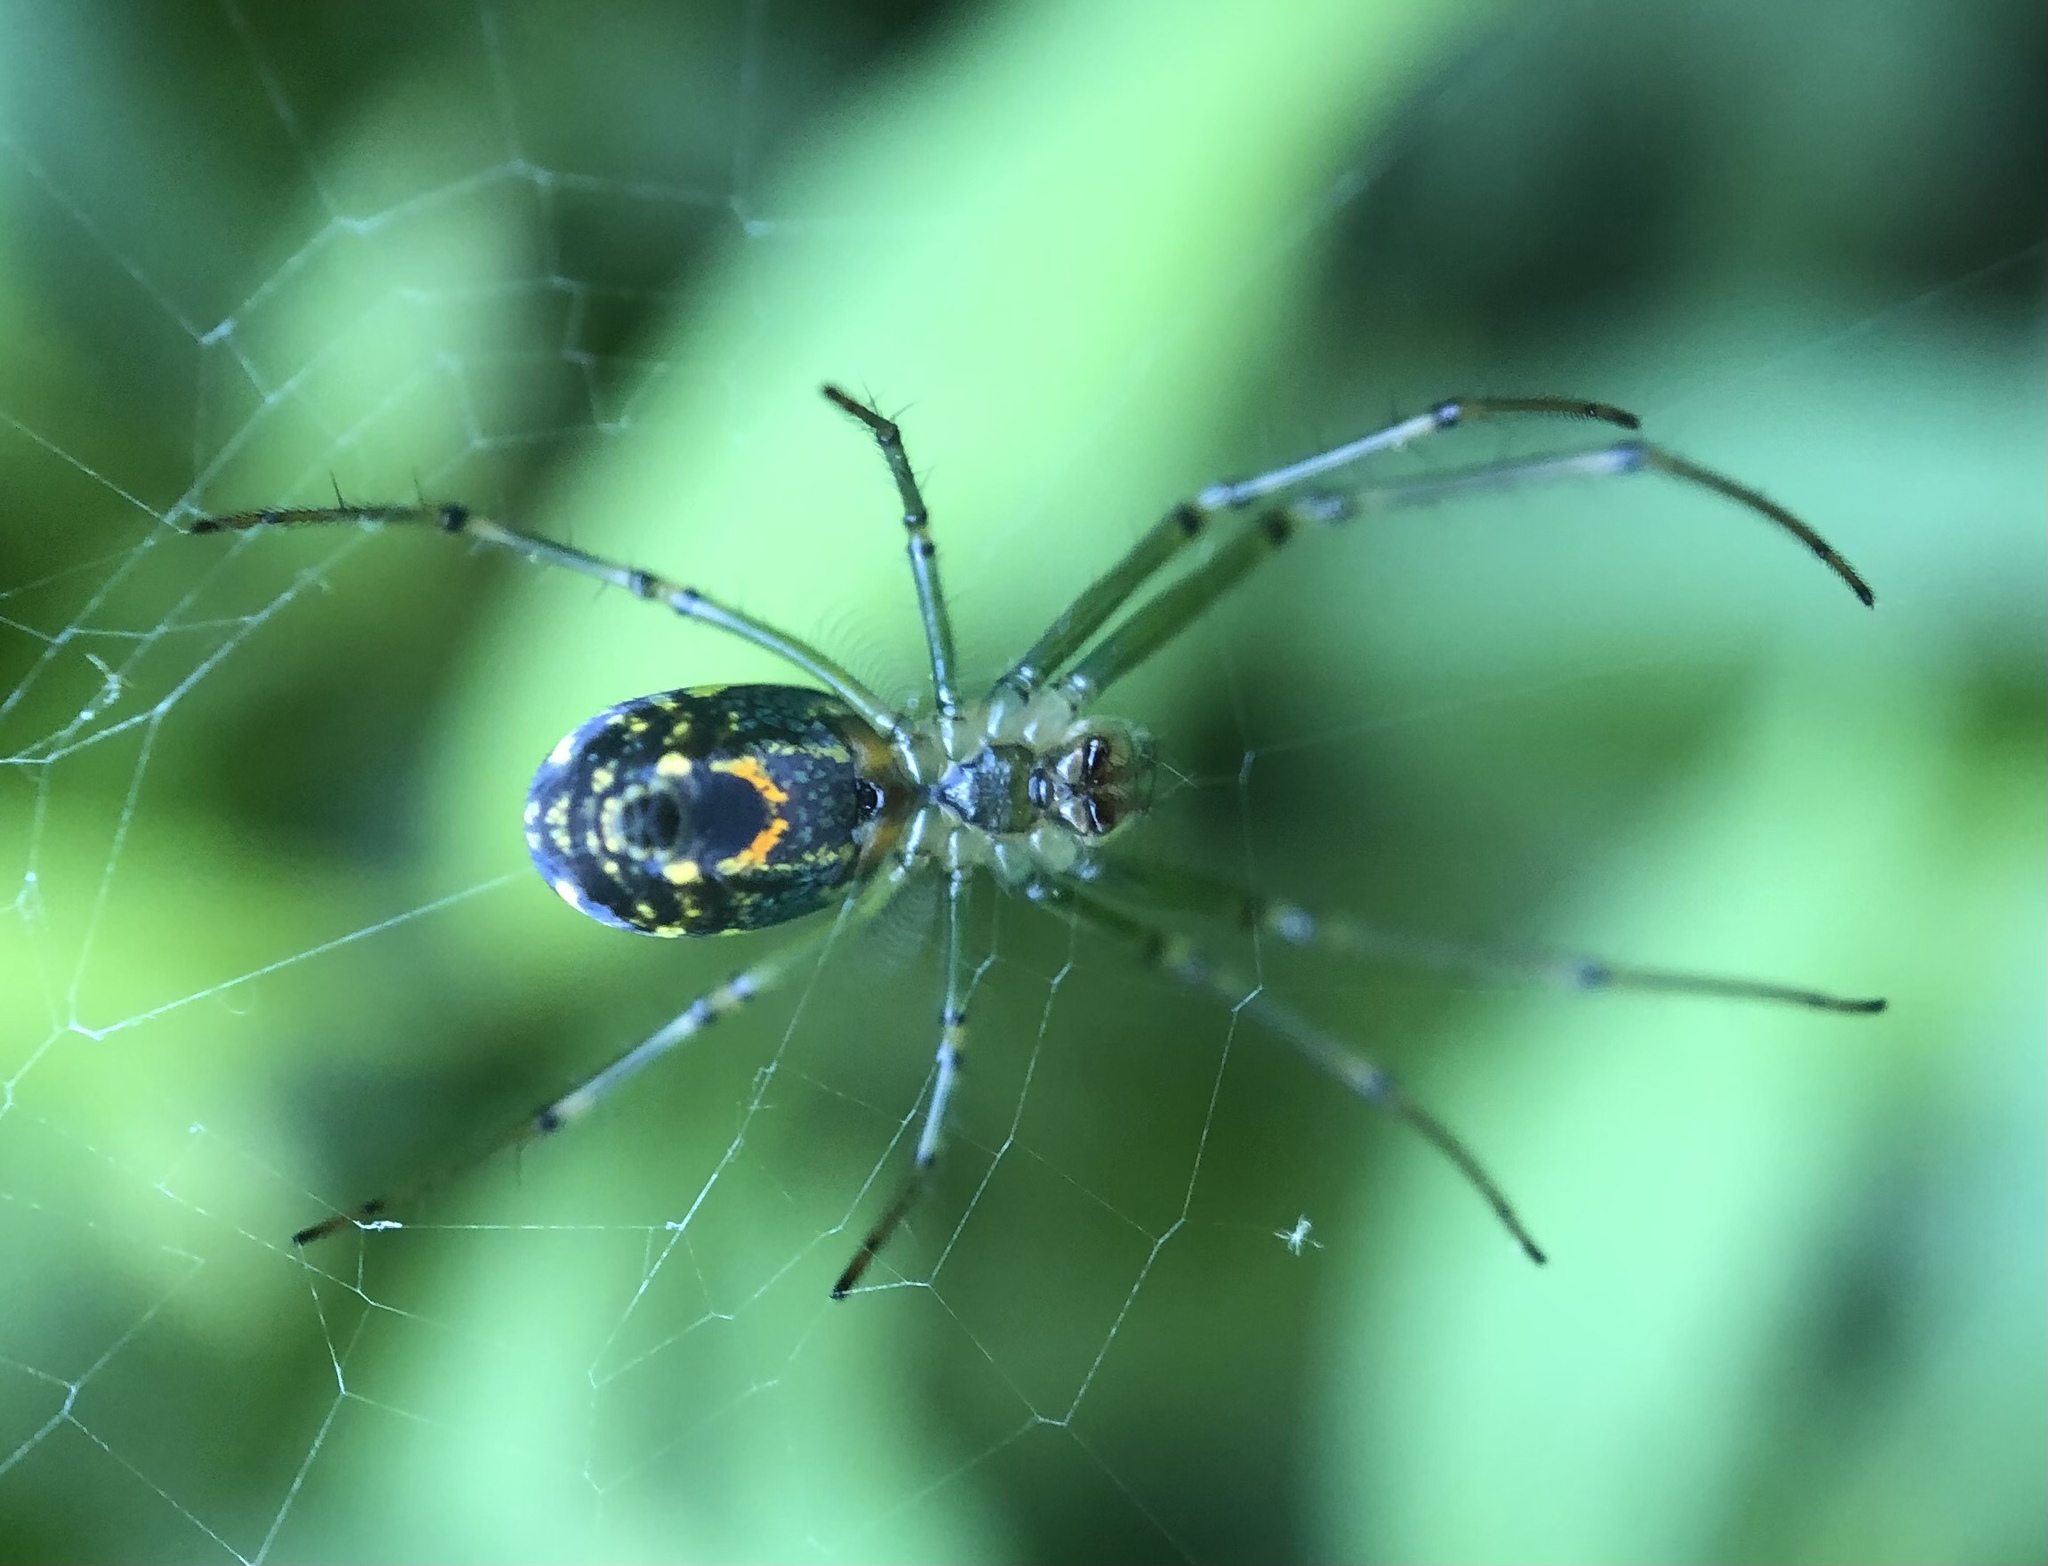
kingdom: Animalia
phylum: Arthropoda
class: Arachnida
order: Araneae
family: Tetragnathidae
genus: Leucauge
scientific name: Leucauge venusta
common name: Longjawed orb weavers
